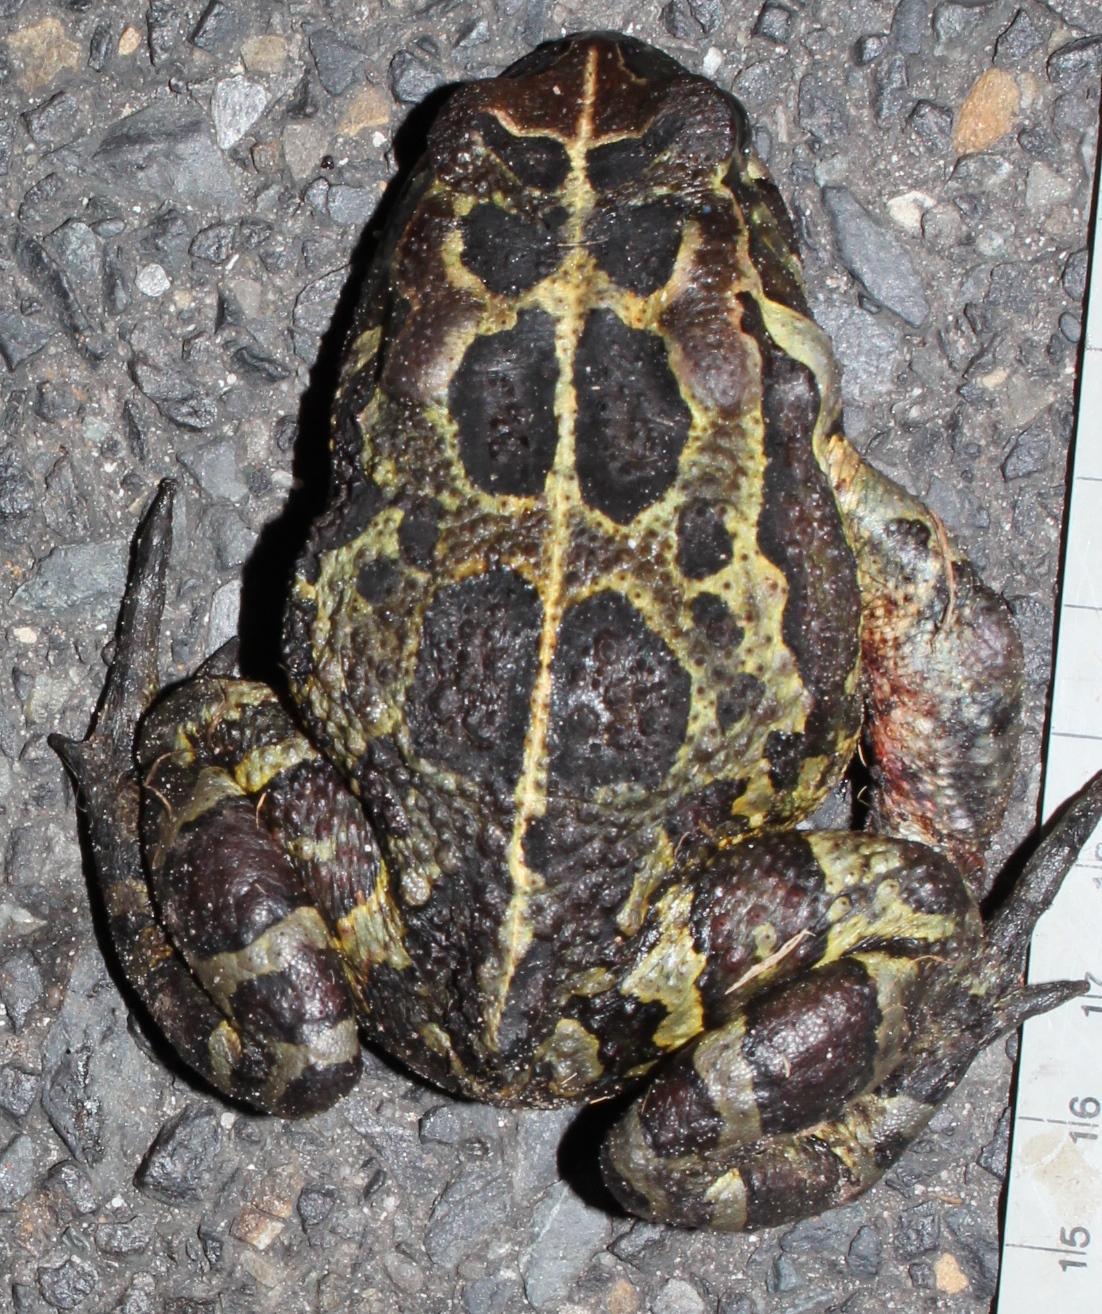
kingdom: Animalia
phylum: Chordata
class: Amphibia
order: Anura
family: Bufonidae
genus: Sclerophrys
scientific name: Sclerophrys pantherina
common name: Panther toad
